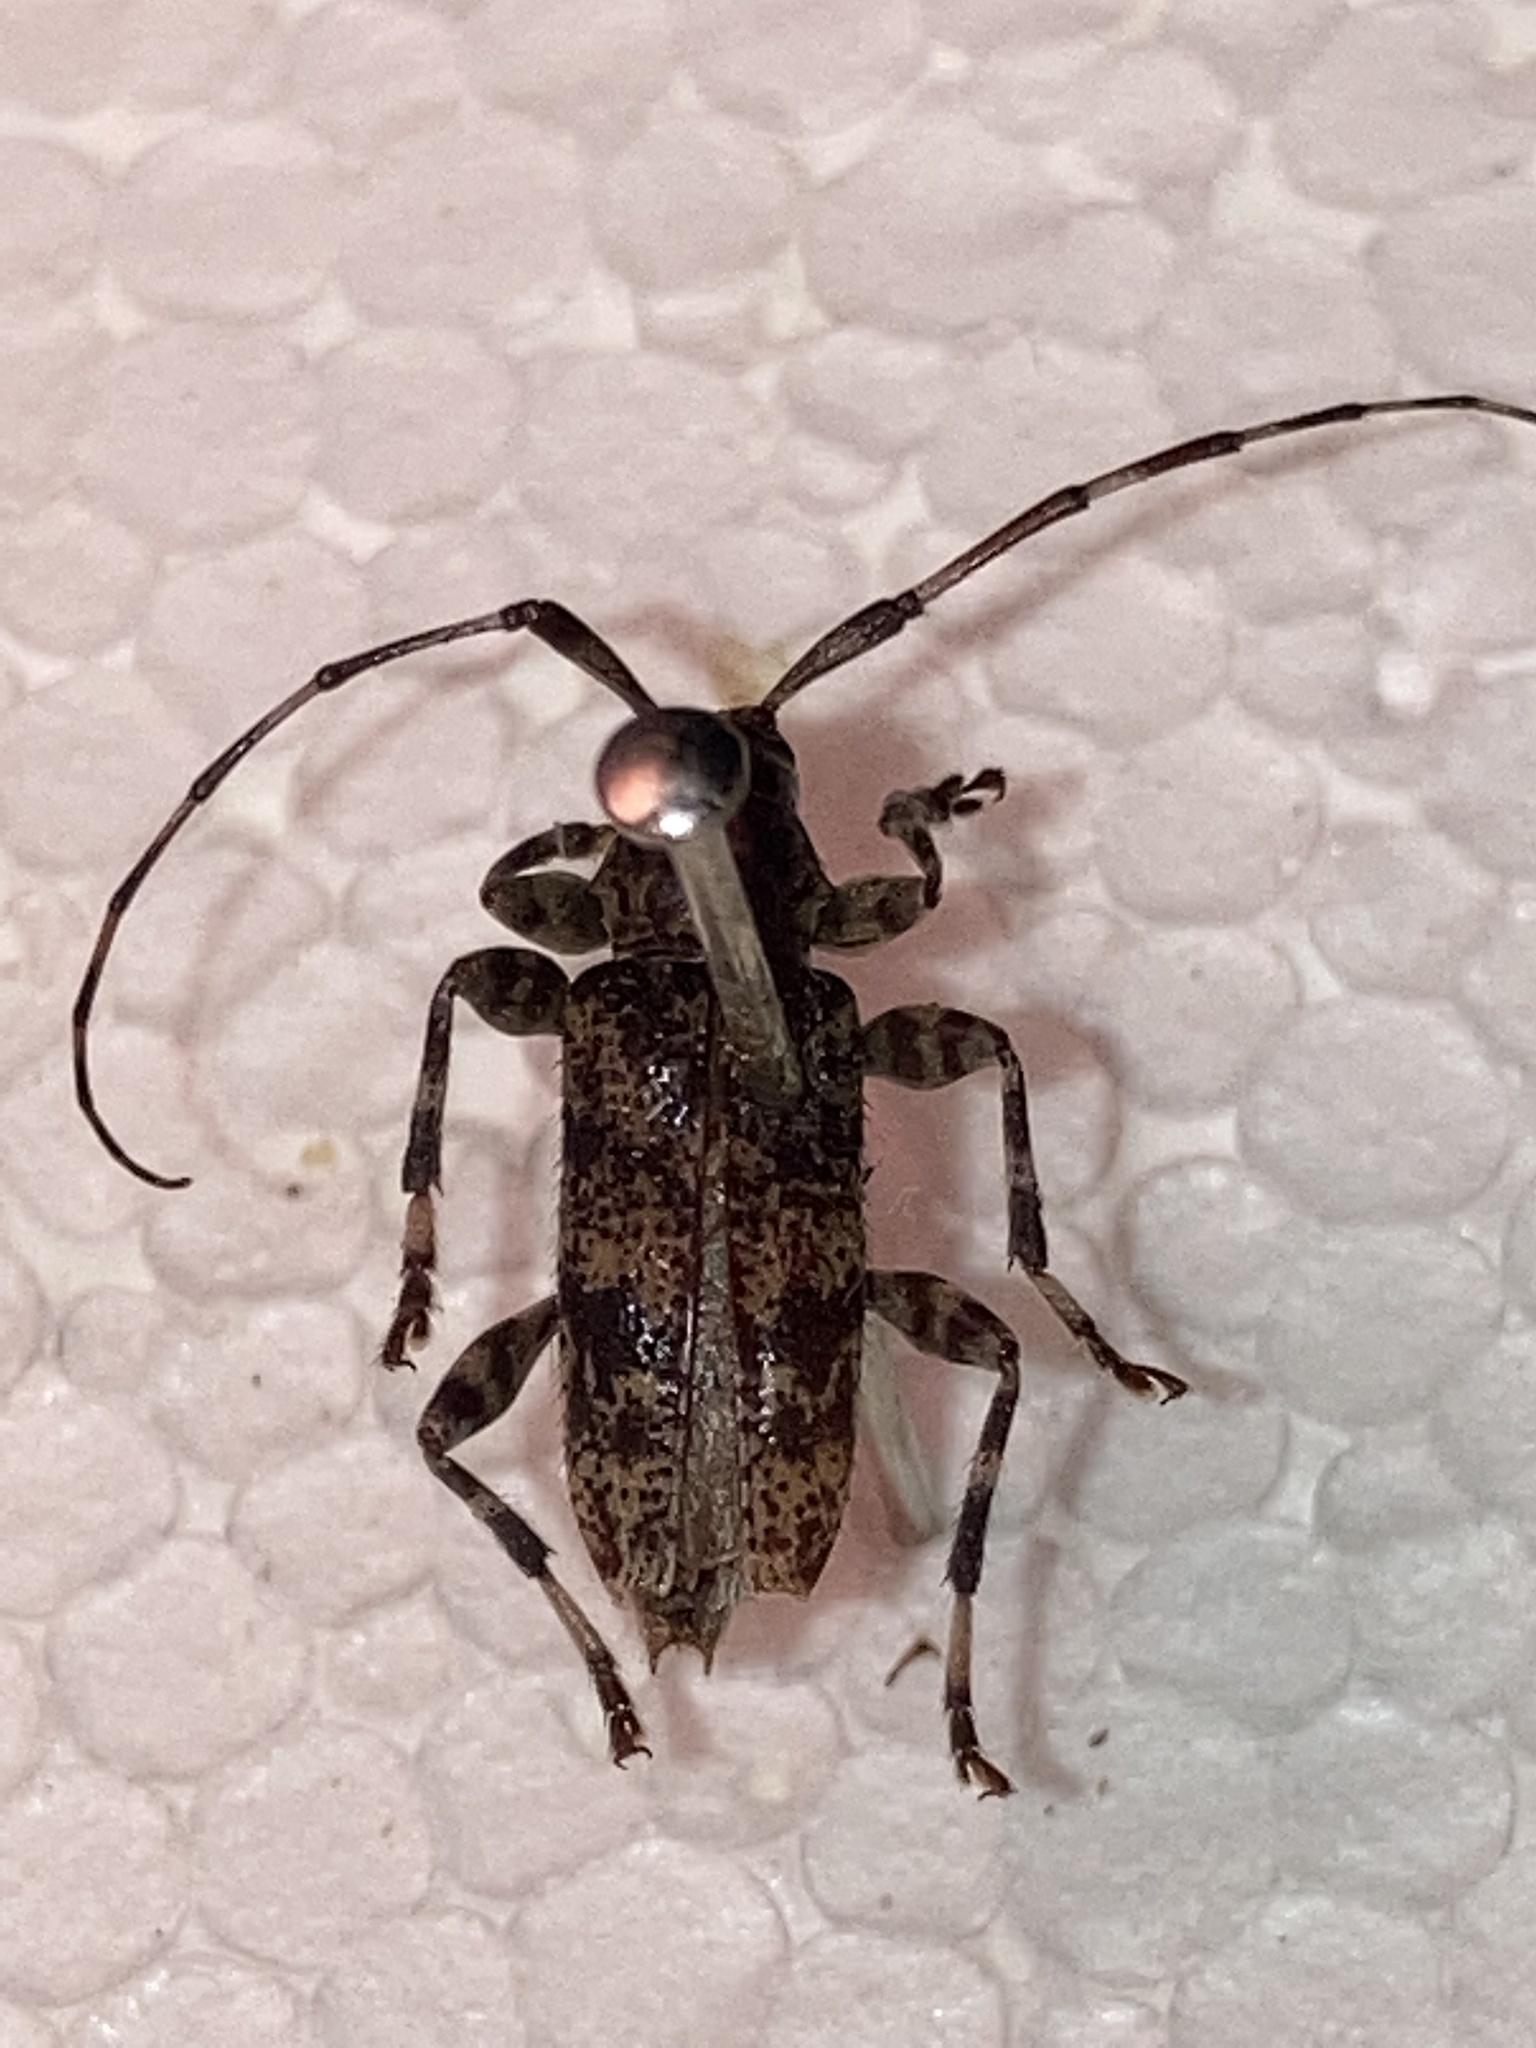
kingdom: Animalia
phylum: Arthropoda
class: Insecta
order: Coleoptera
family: Cerambycidae
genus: Graphisurus
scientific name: Graphisurus fasciatus
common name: Banded graphisurus
